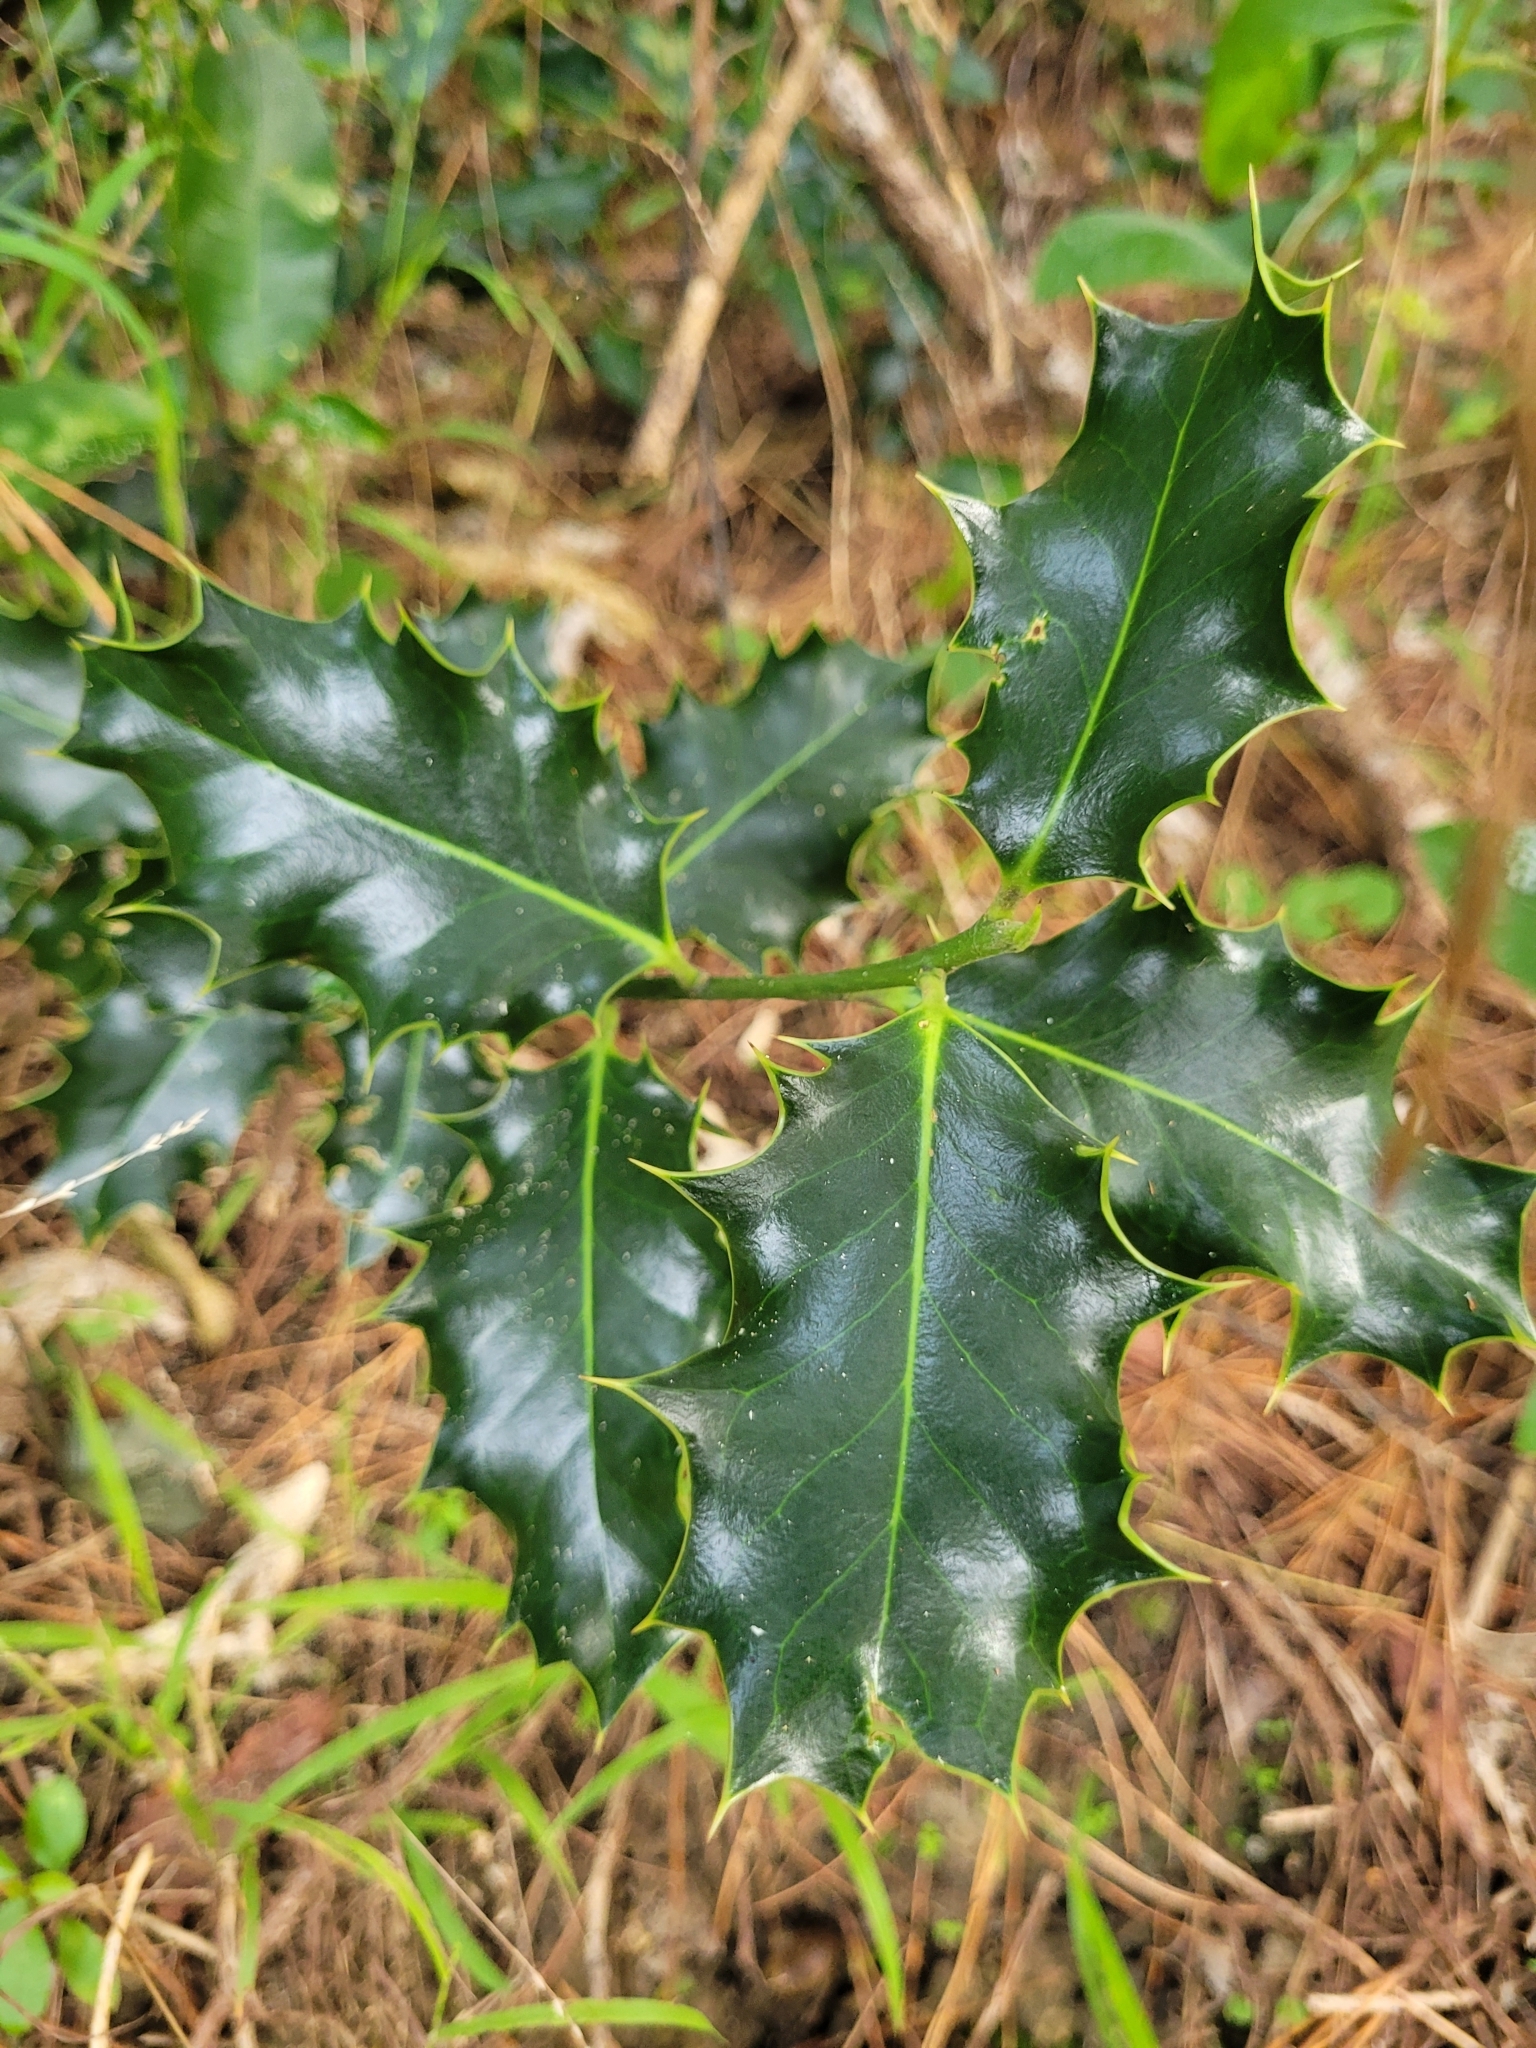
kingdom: Plantae
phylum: Tracheophyta
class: Magnoliopsida
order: Aquifoliales
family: Aquifoliaceae
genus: Ilex
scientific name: Ilex aquifolium
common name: English holly
